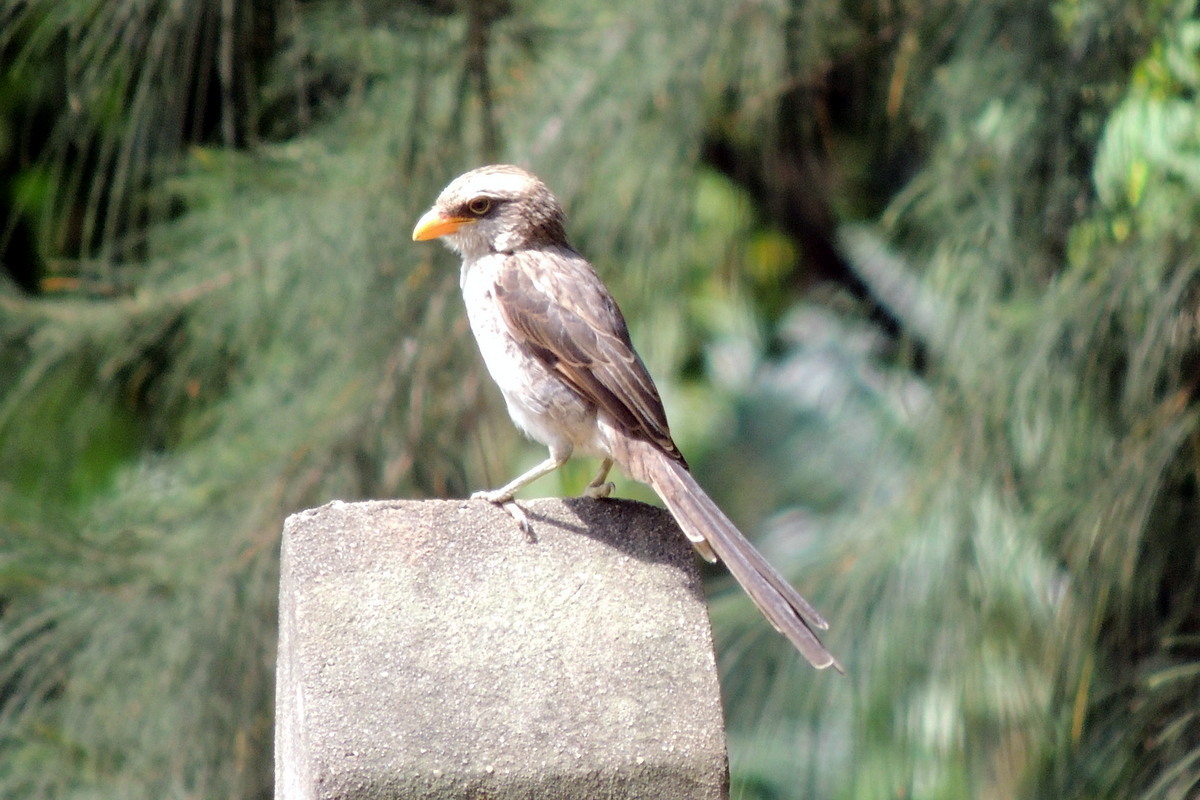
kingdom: Animalia
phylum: Chordata
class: Aves
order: Passeriformes
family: Laniidae
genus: Corvinella
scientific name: Corvinella corvina
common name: Yellow-billed shrike
